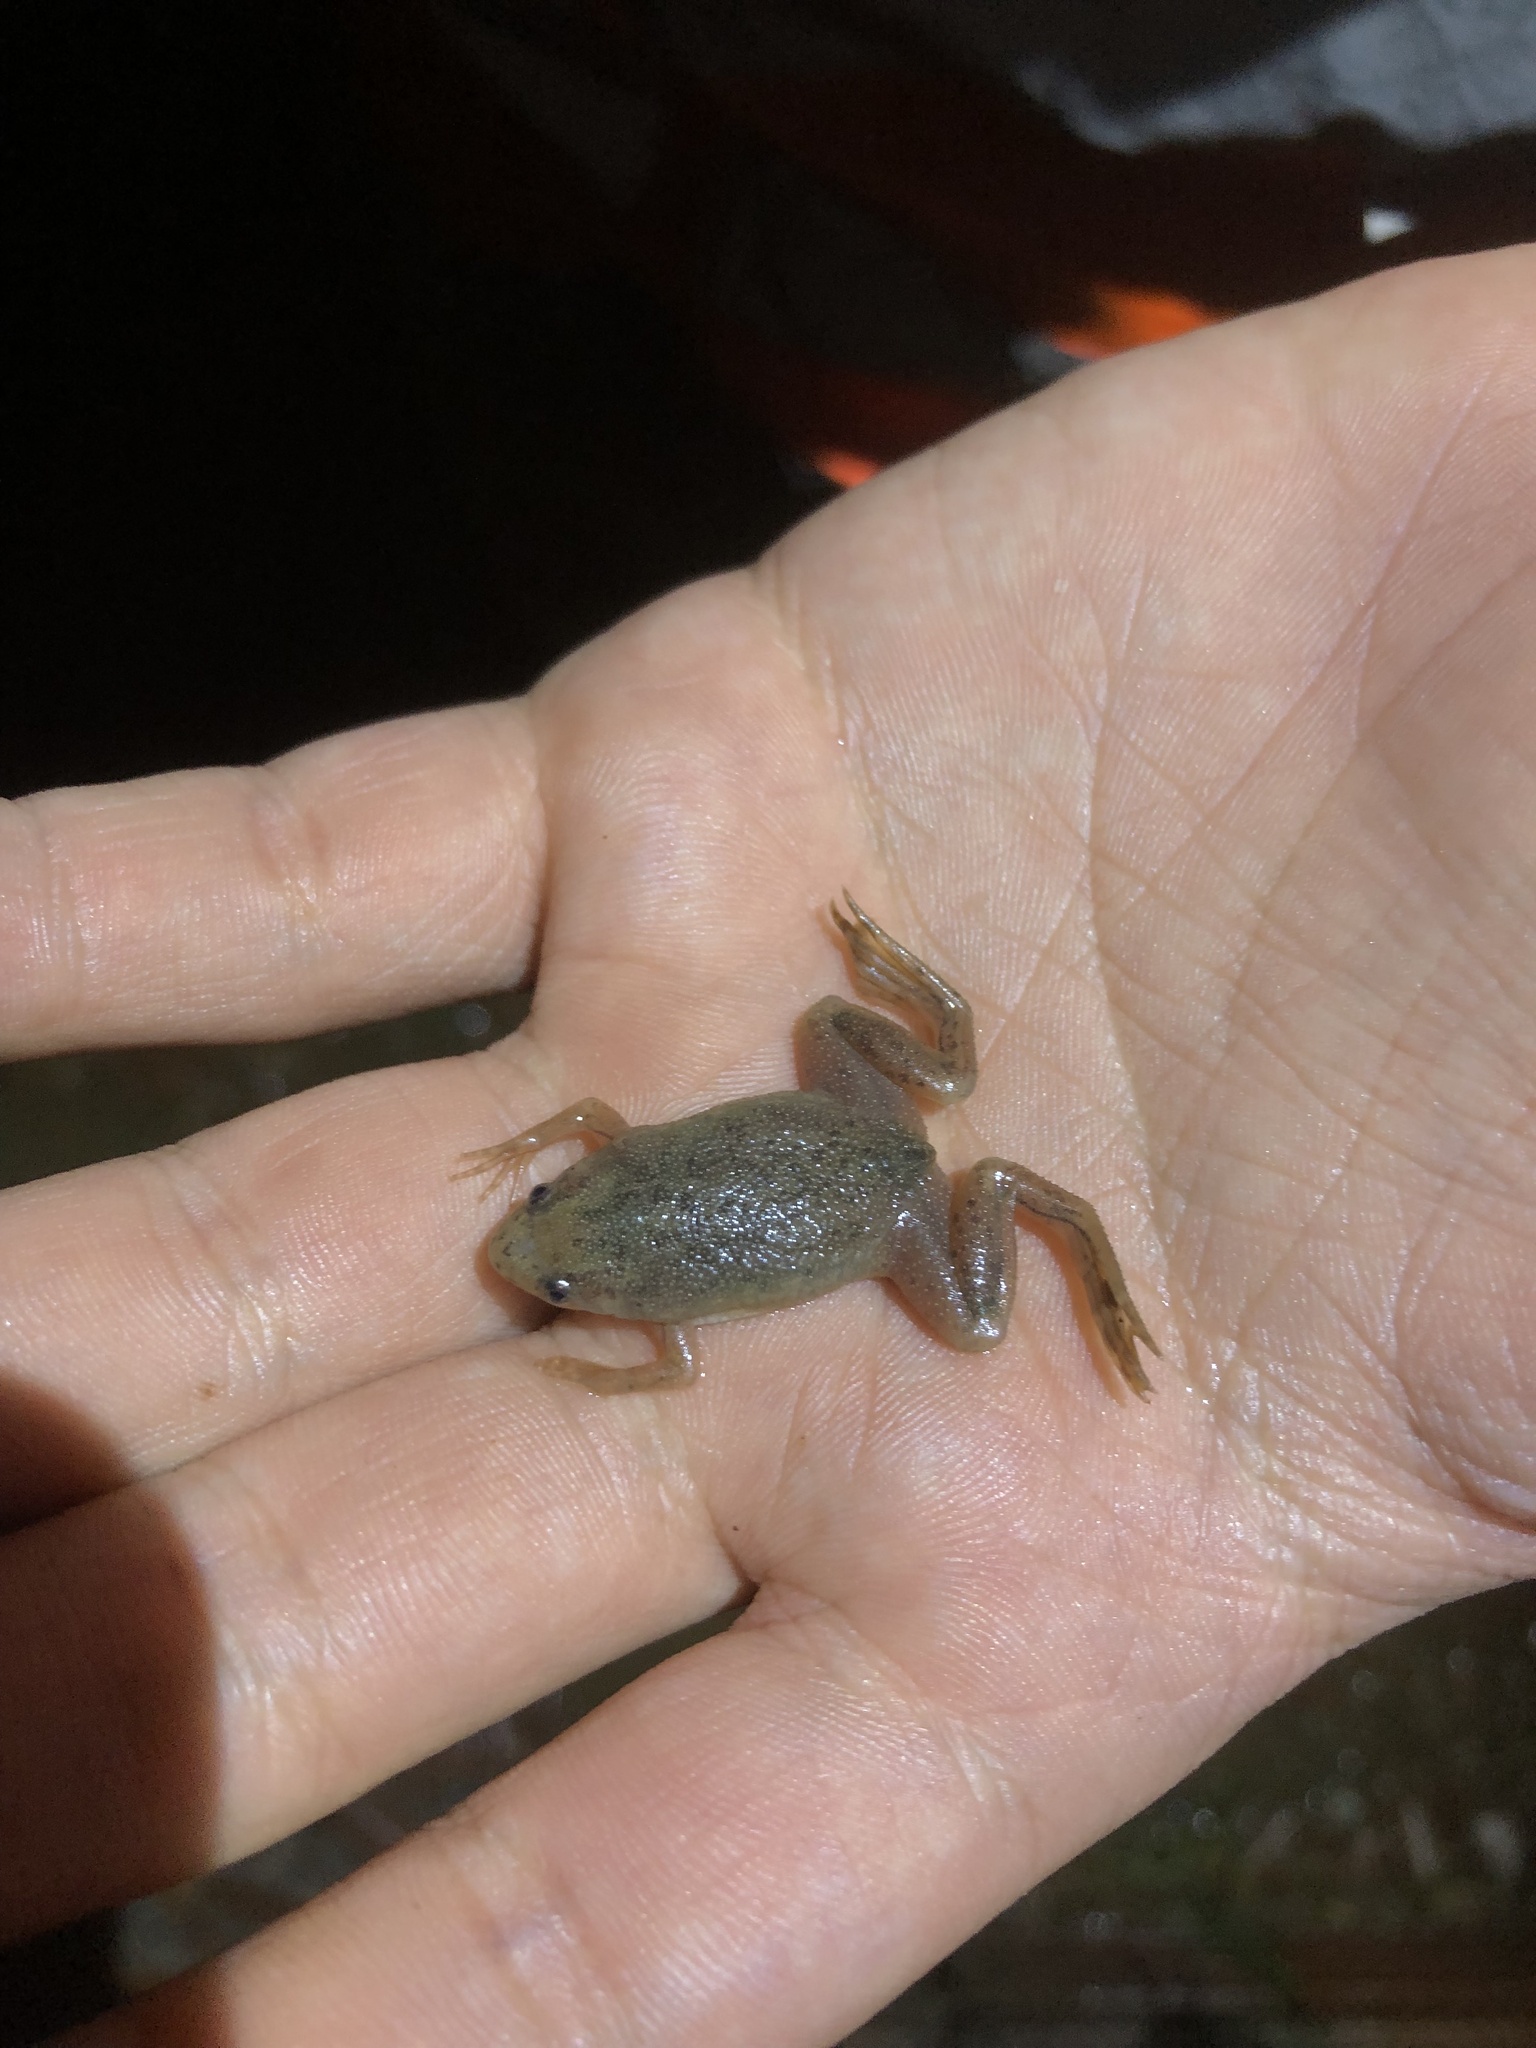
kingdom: Animalia
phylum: Chordata
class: Amphibia
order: Anura
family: Pipidae
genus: Pipa
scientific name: Pipa carvalhoi
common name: Carvalho's surinam toad
